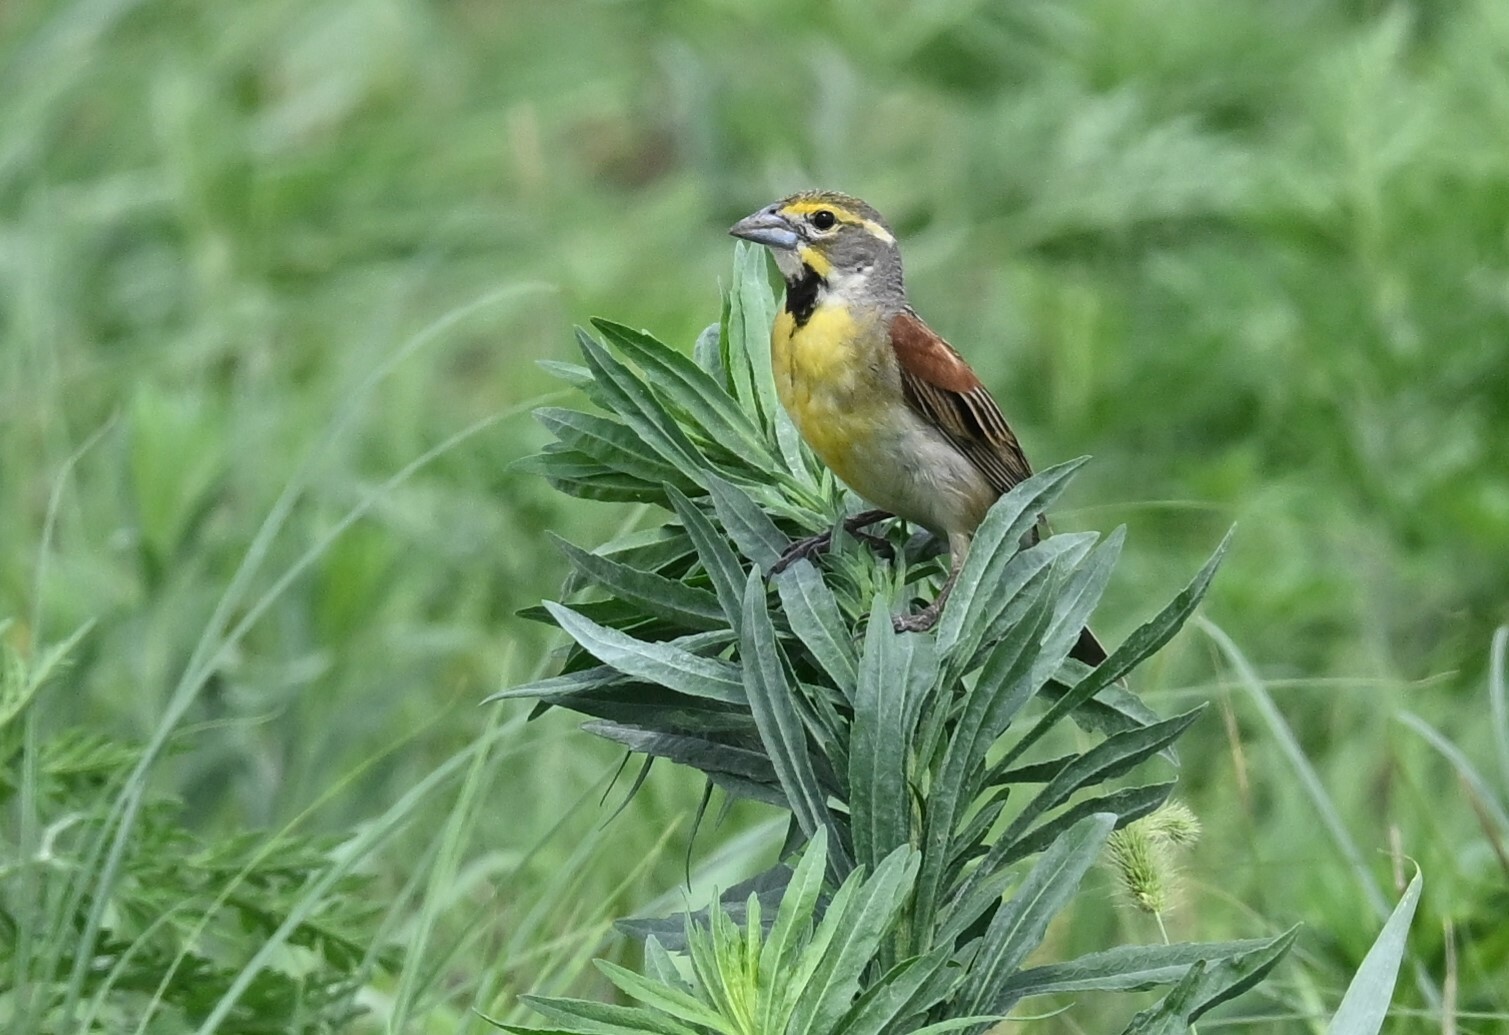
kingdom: Animalia
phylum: Chordata
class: Aves
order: Passeriformes
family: Cardinalidae
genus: Spiza
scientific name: Spiza americana
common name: Dickcissel
